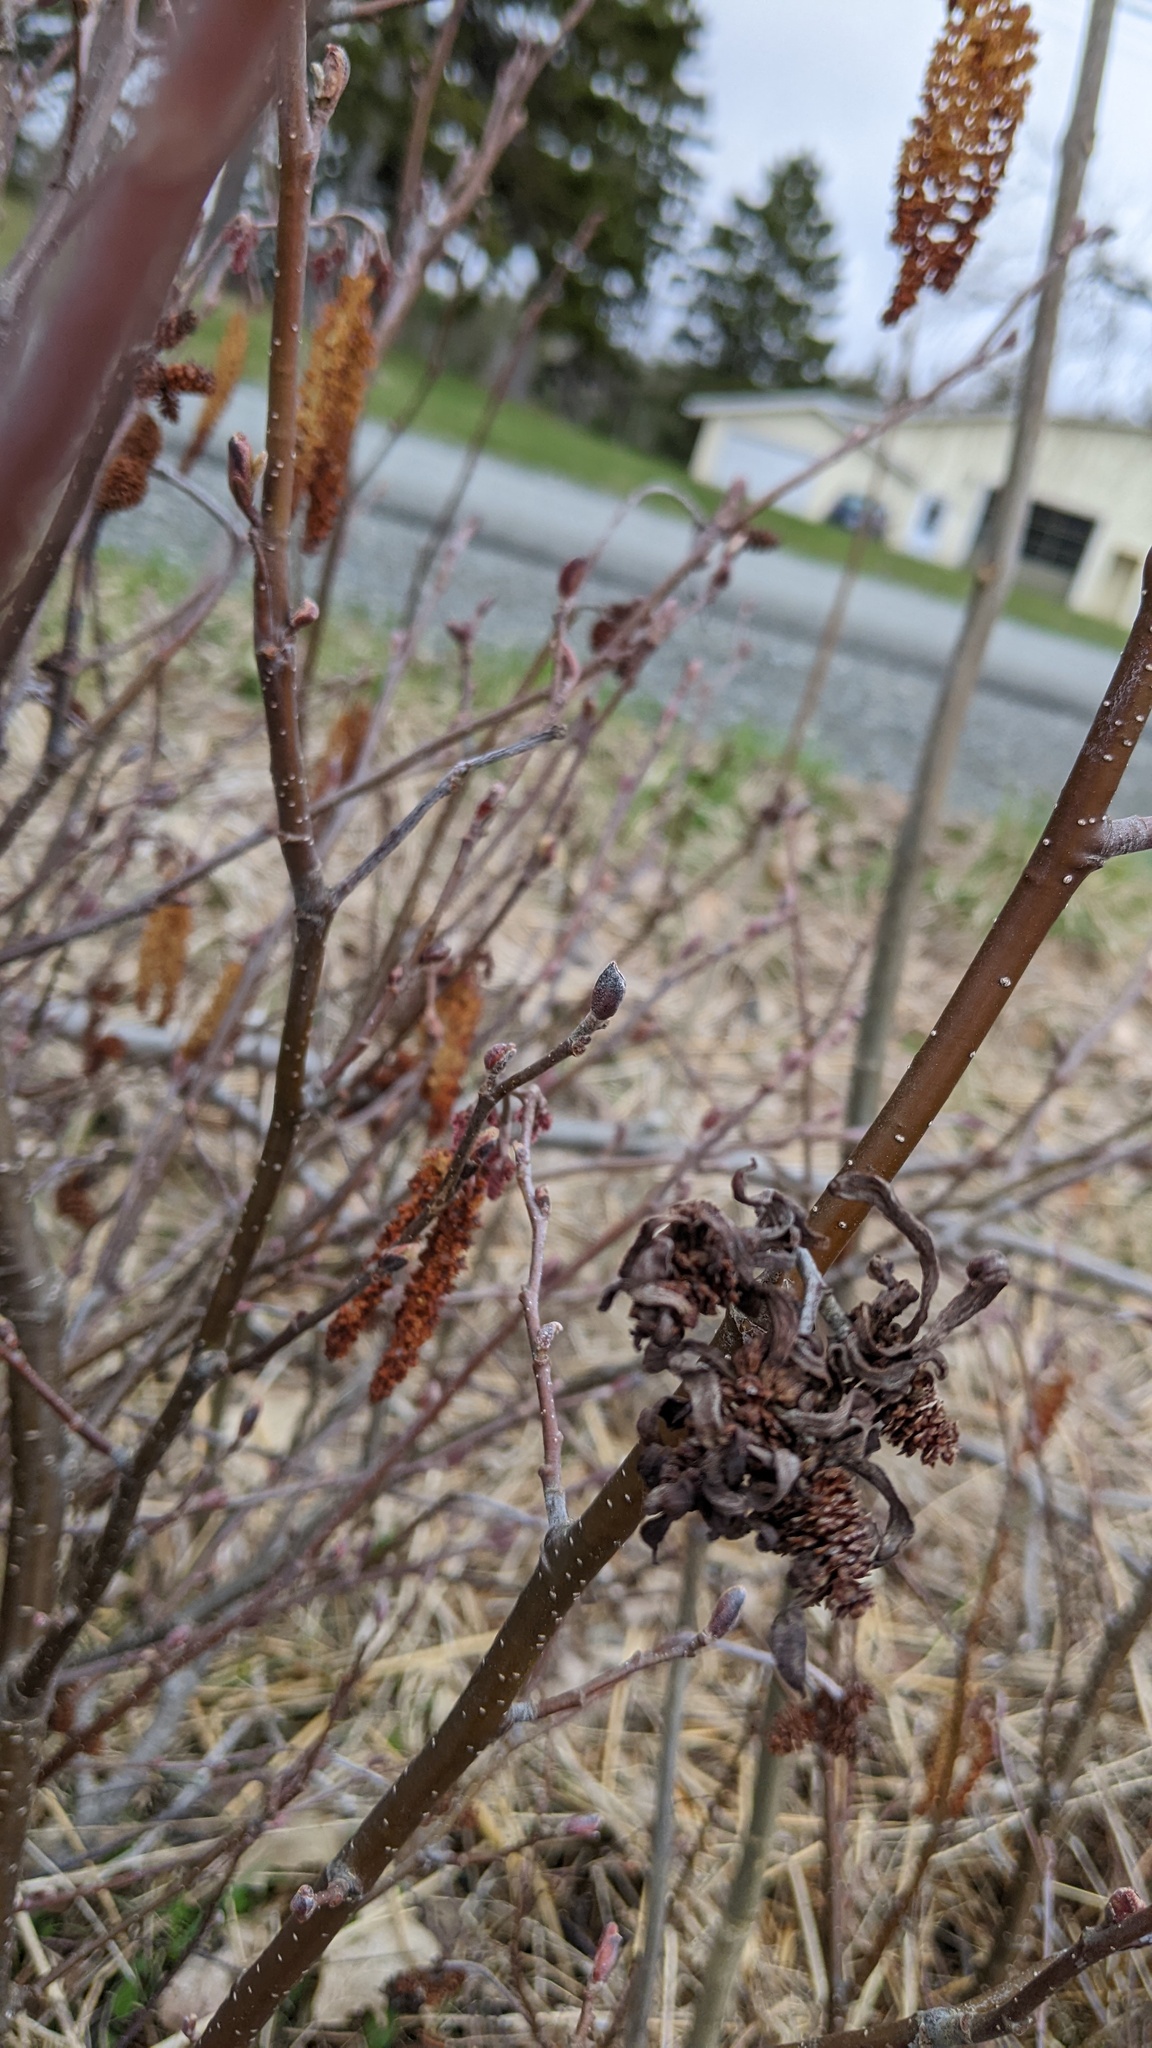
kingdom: Fungi
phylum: Ascomycota
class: Taphrinomycetes
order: Taphrinales
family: Taphrinaceae
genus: Taphrina
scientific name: Taphrina robinsoniana
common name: Eastern american alder tongue gall fungus
